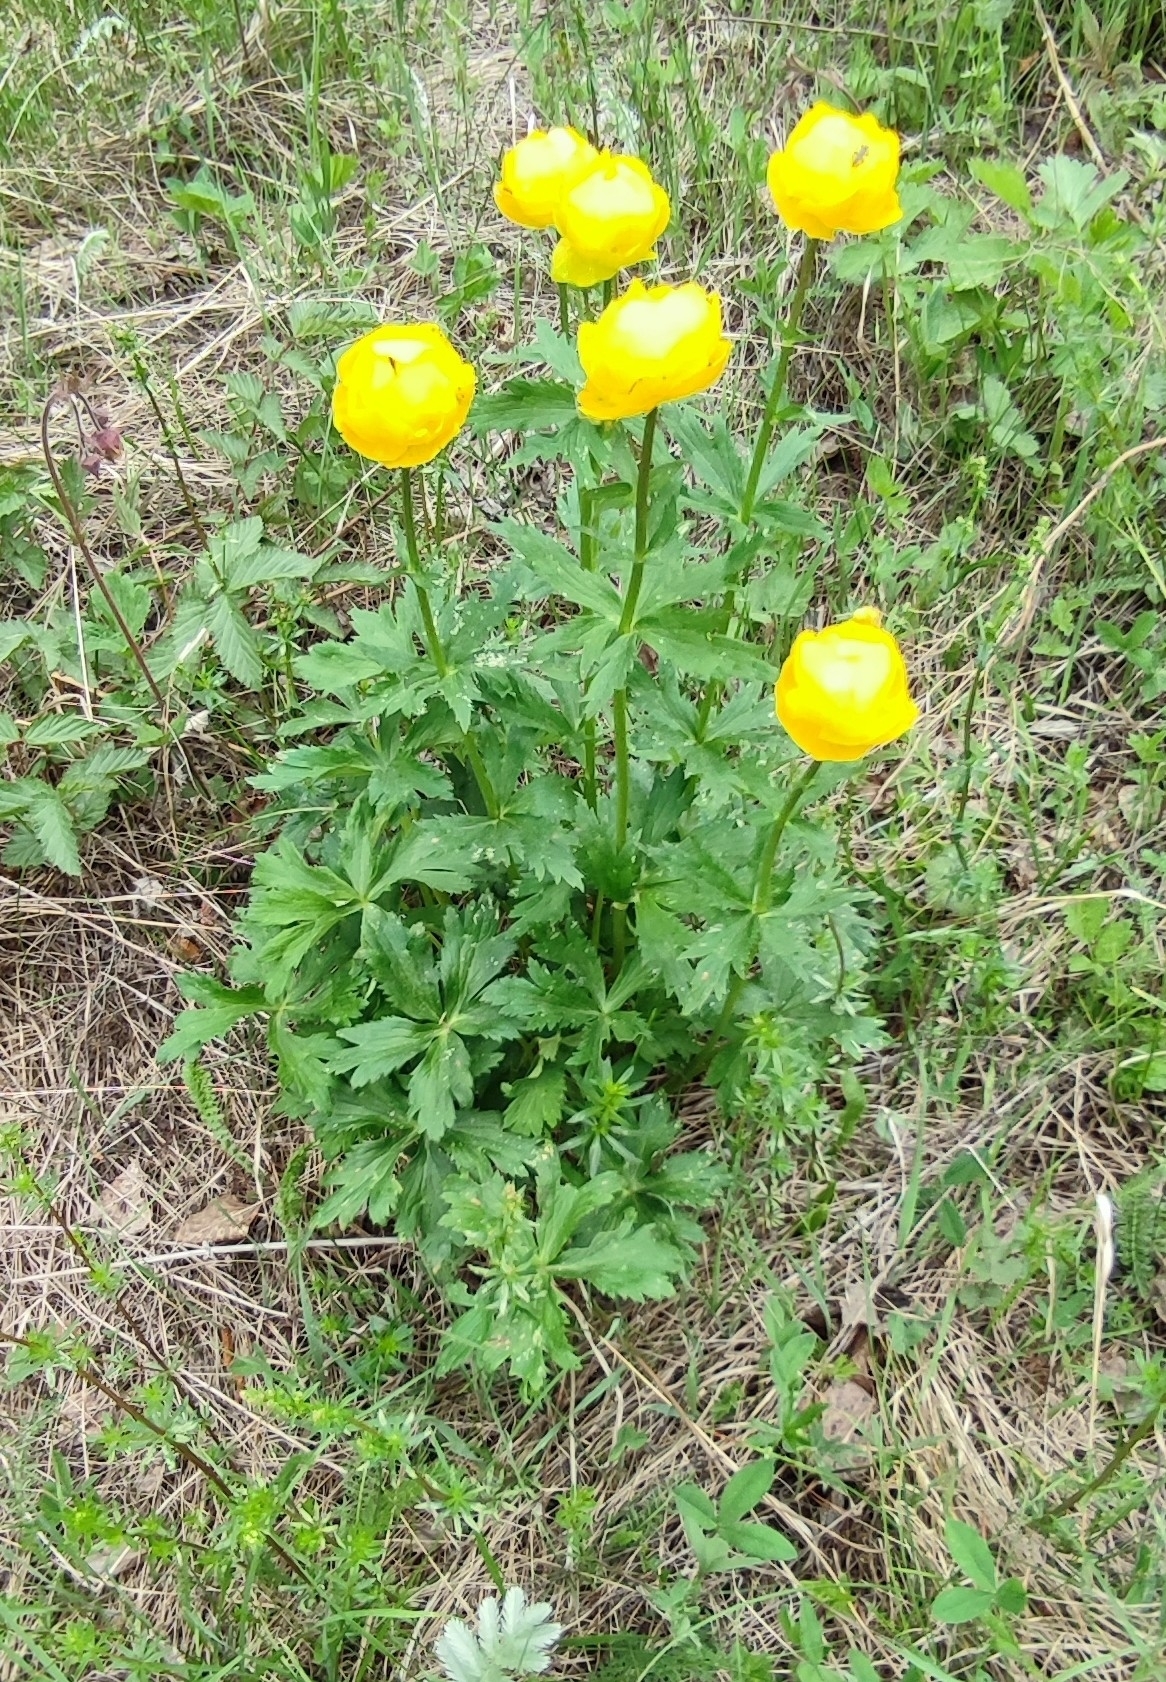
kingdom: Plantae
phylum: Tracheophyta
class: Magnoliopsida
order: Ranunculales
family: Ranunculaceae
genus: Trollius
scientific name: Trollius europaeus
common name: European globeflower
